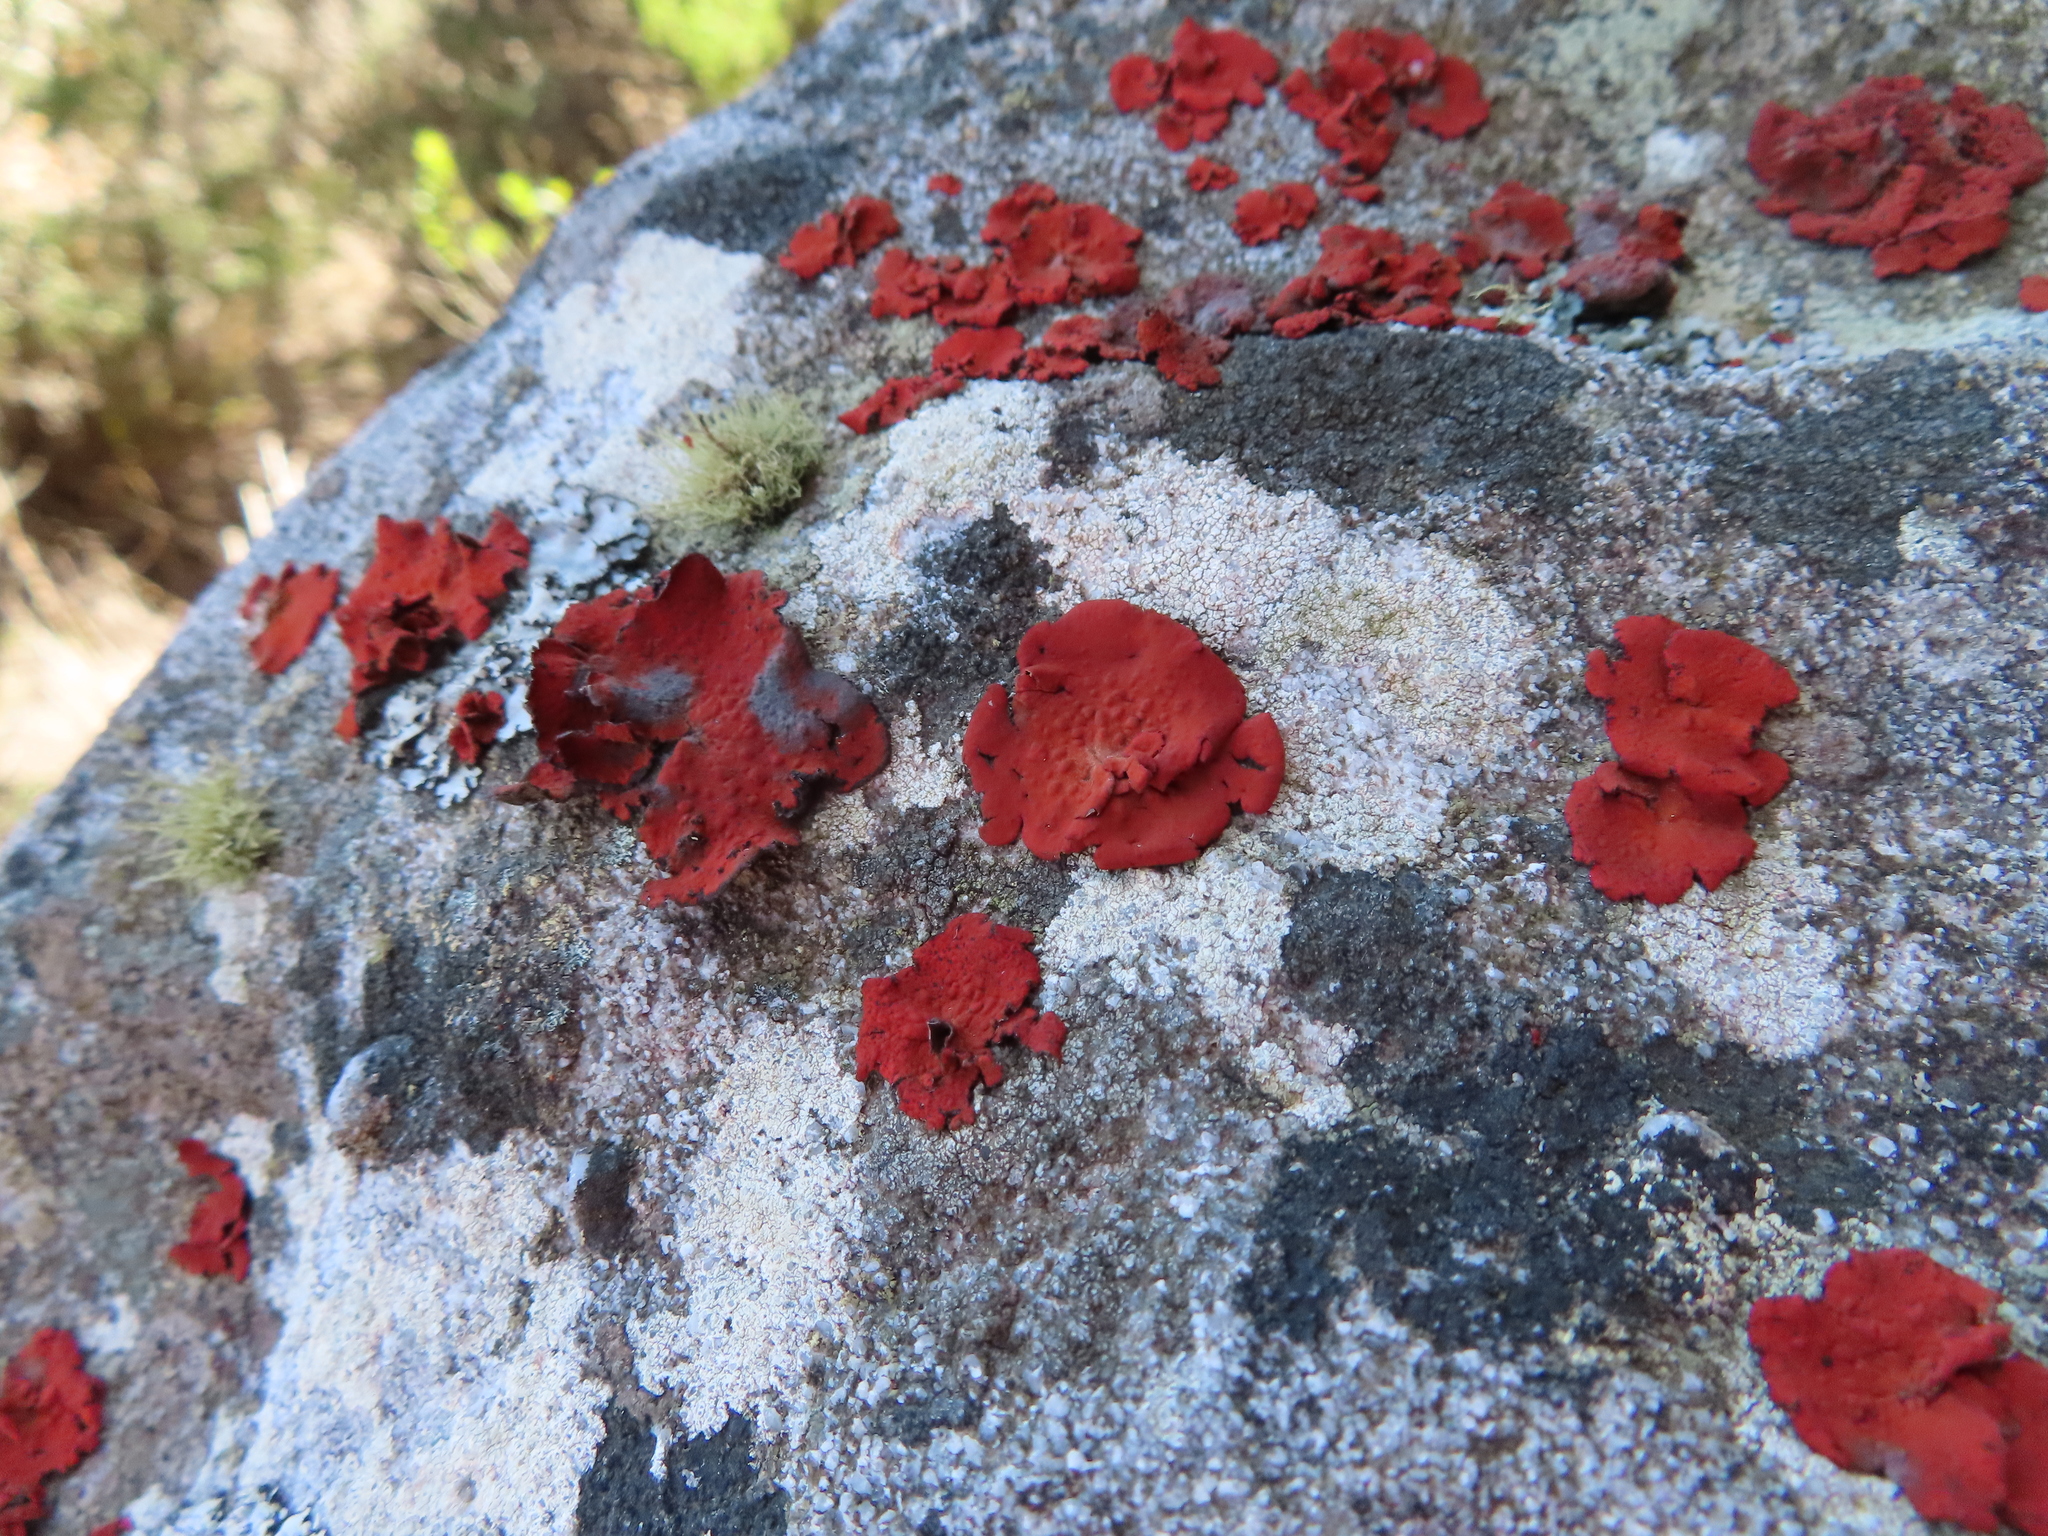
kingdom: Fungi
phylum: Ascomycota
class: Lecanoromycetes
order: Umbilicariales
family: Umbilicariaceae
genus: Lasallia
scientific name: Lasallia rubiginosa
